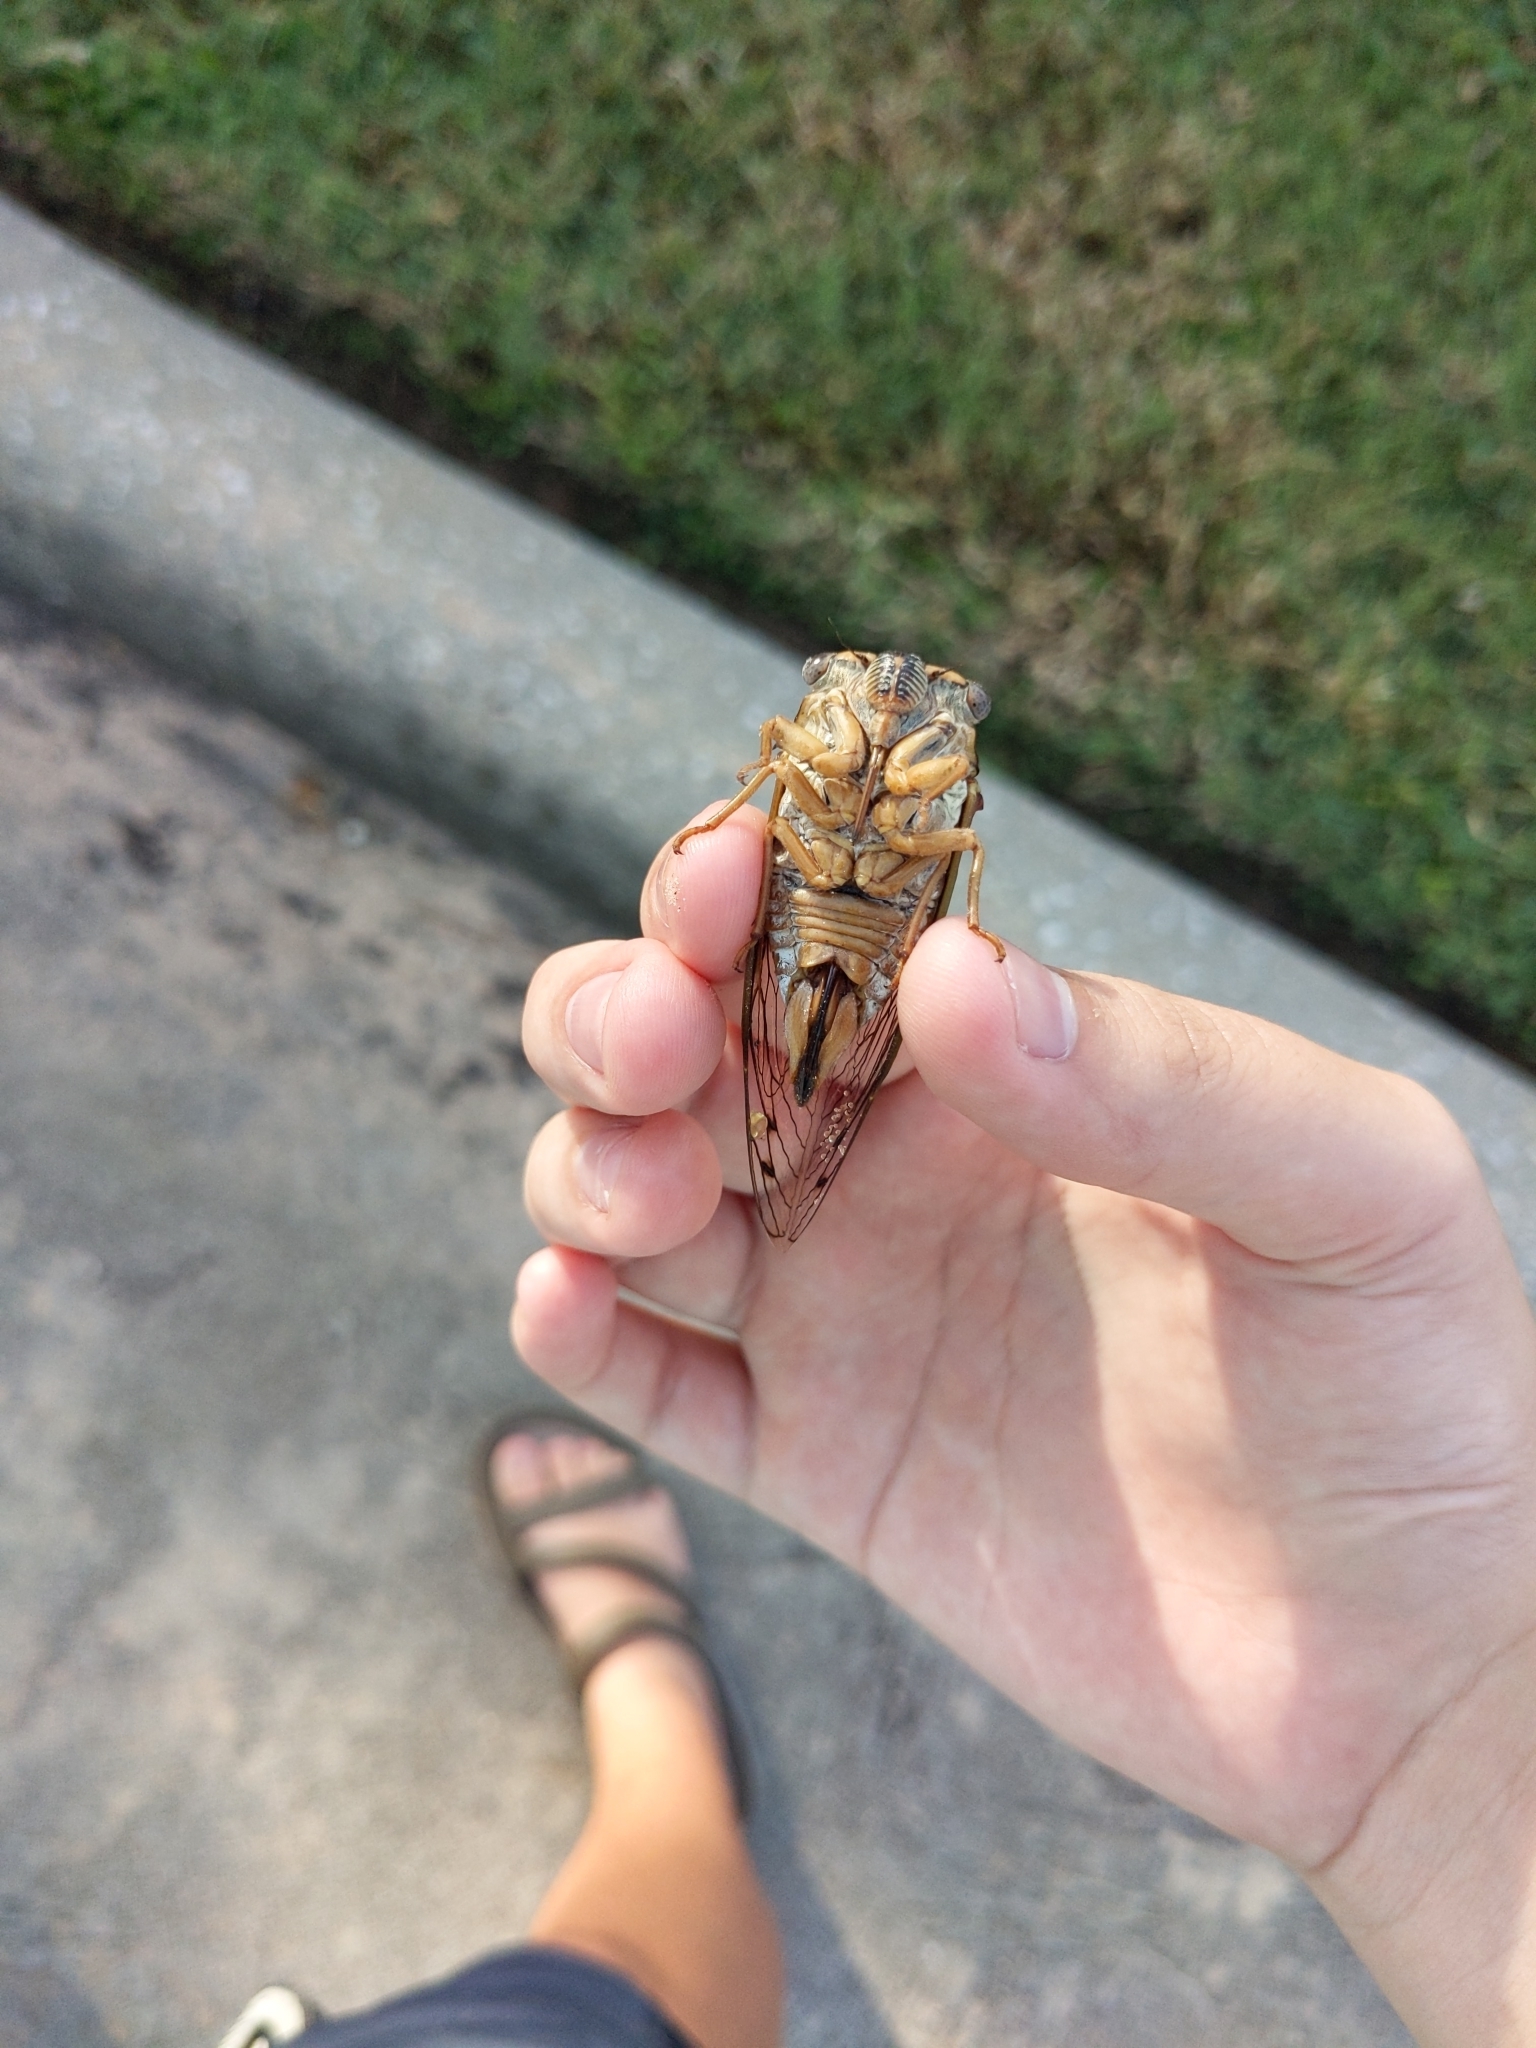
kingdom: Animalia
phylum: Arthropoda
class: Insecta
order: Hemiptera
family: Cicadidae
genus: Megatibicen
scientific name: Megatibicen resh
